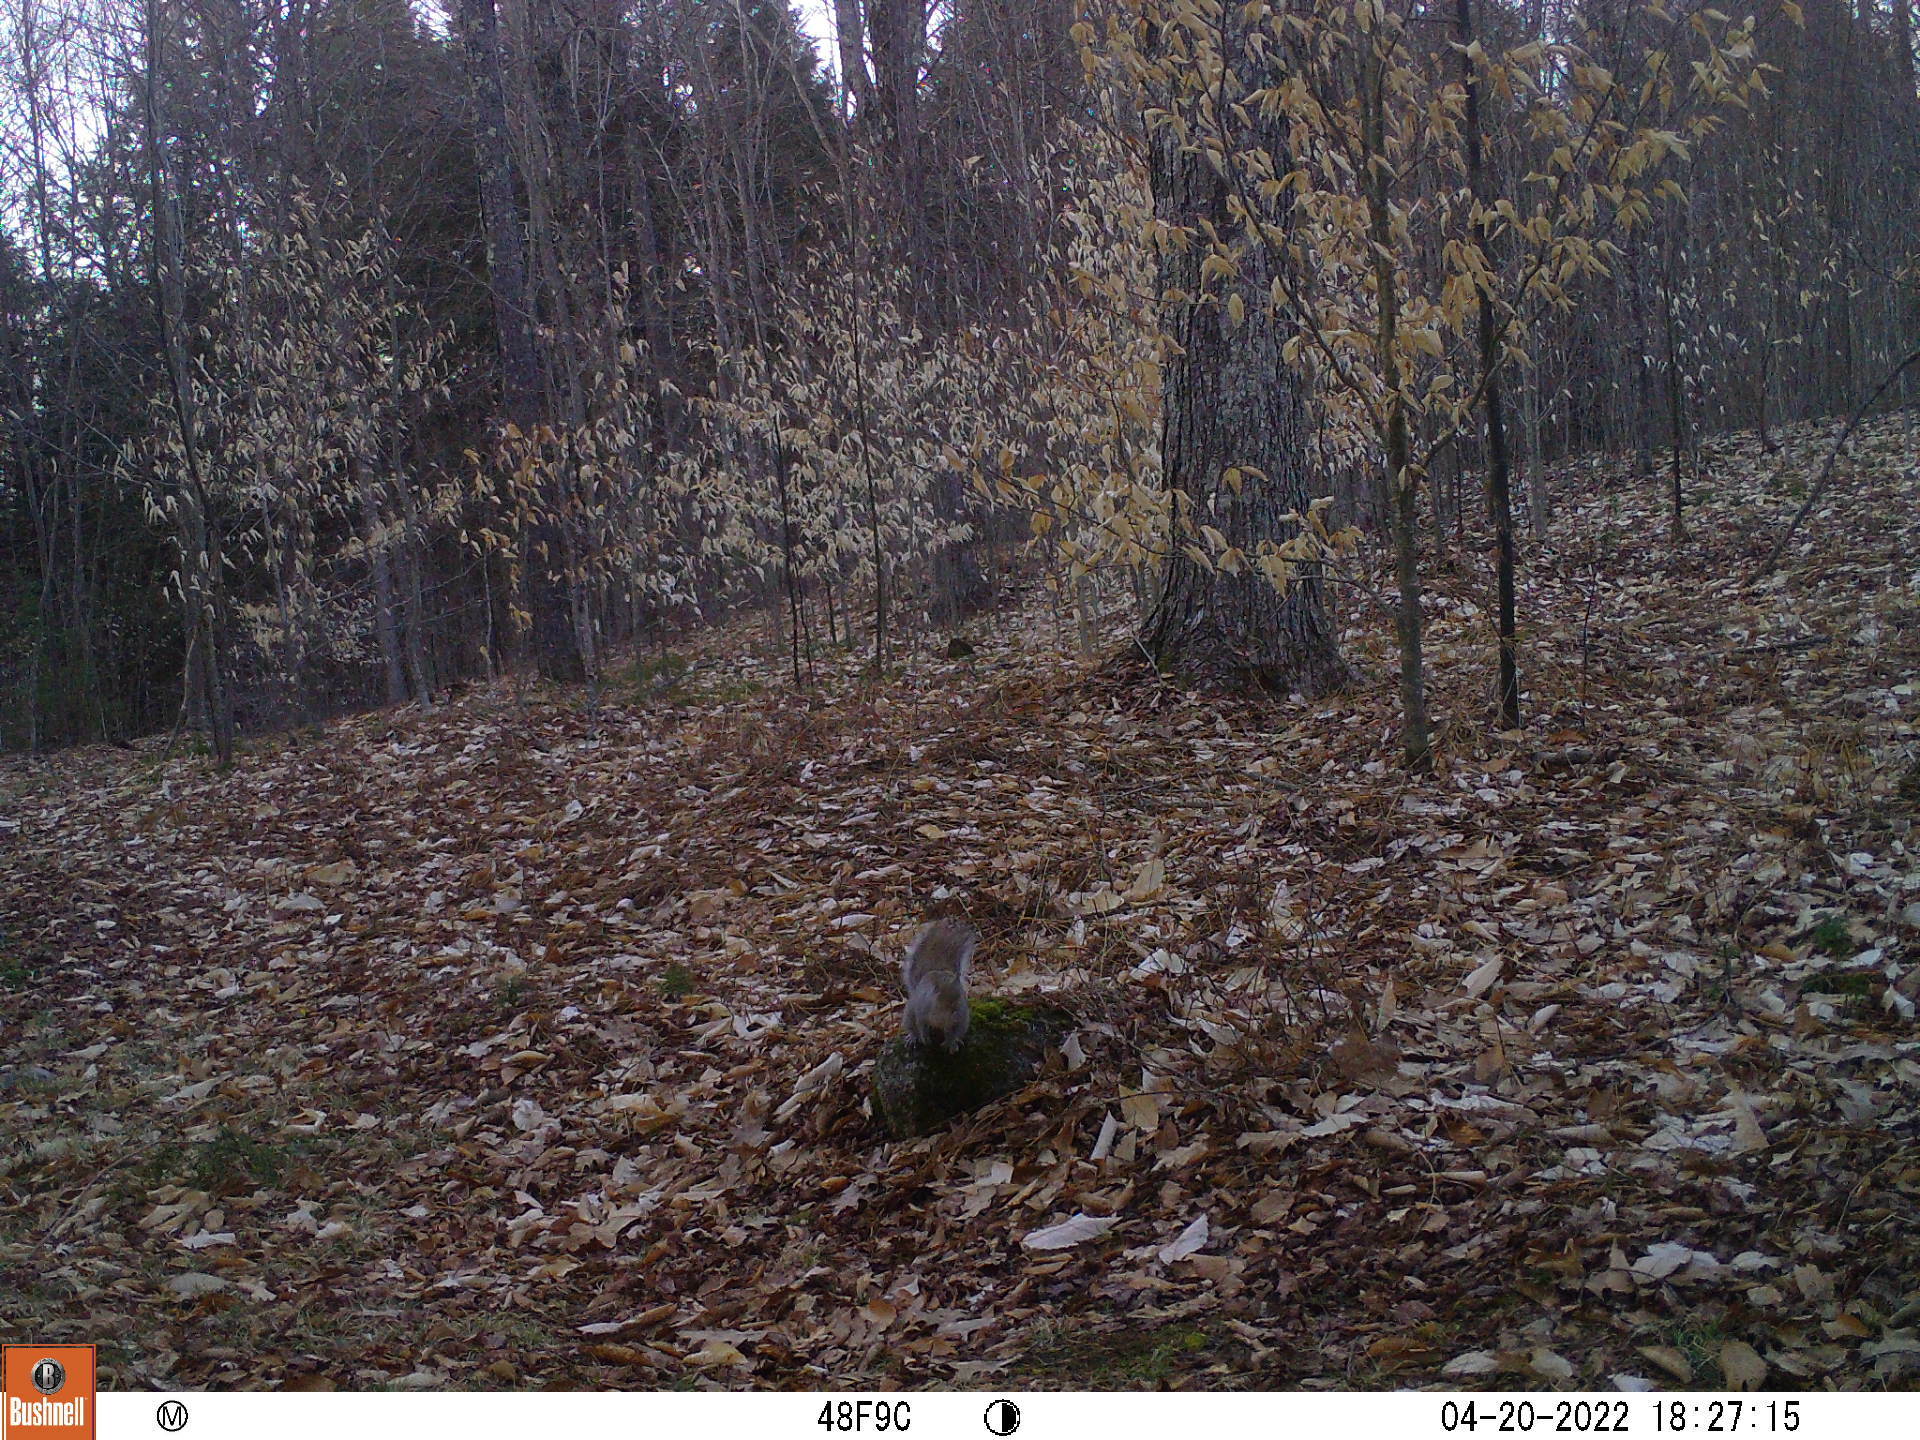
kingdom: Animalia
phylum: Chordata
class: Mammalia
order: Rodentia
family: Sciuridae
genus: Sciurus
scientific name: Sciurus carolinensis
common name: Eastern gray squirrel
